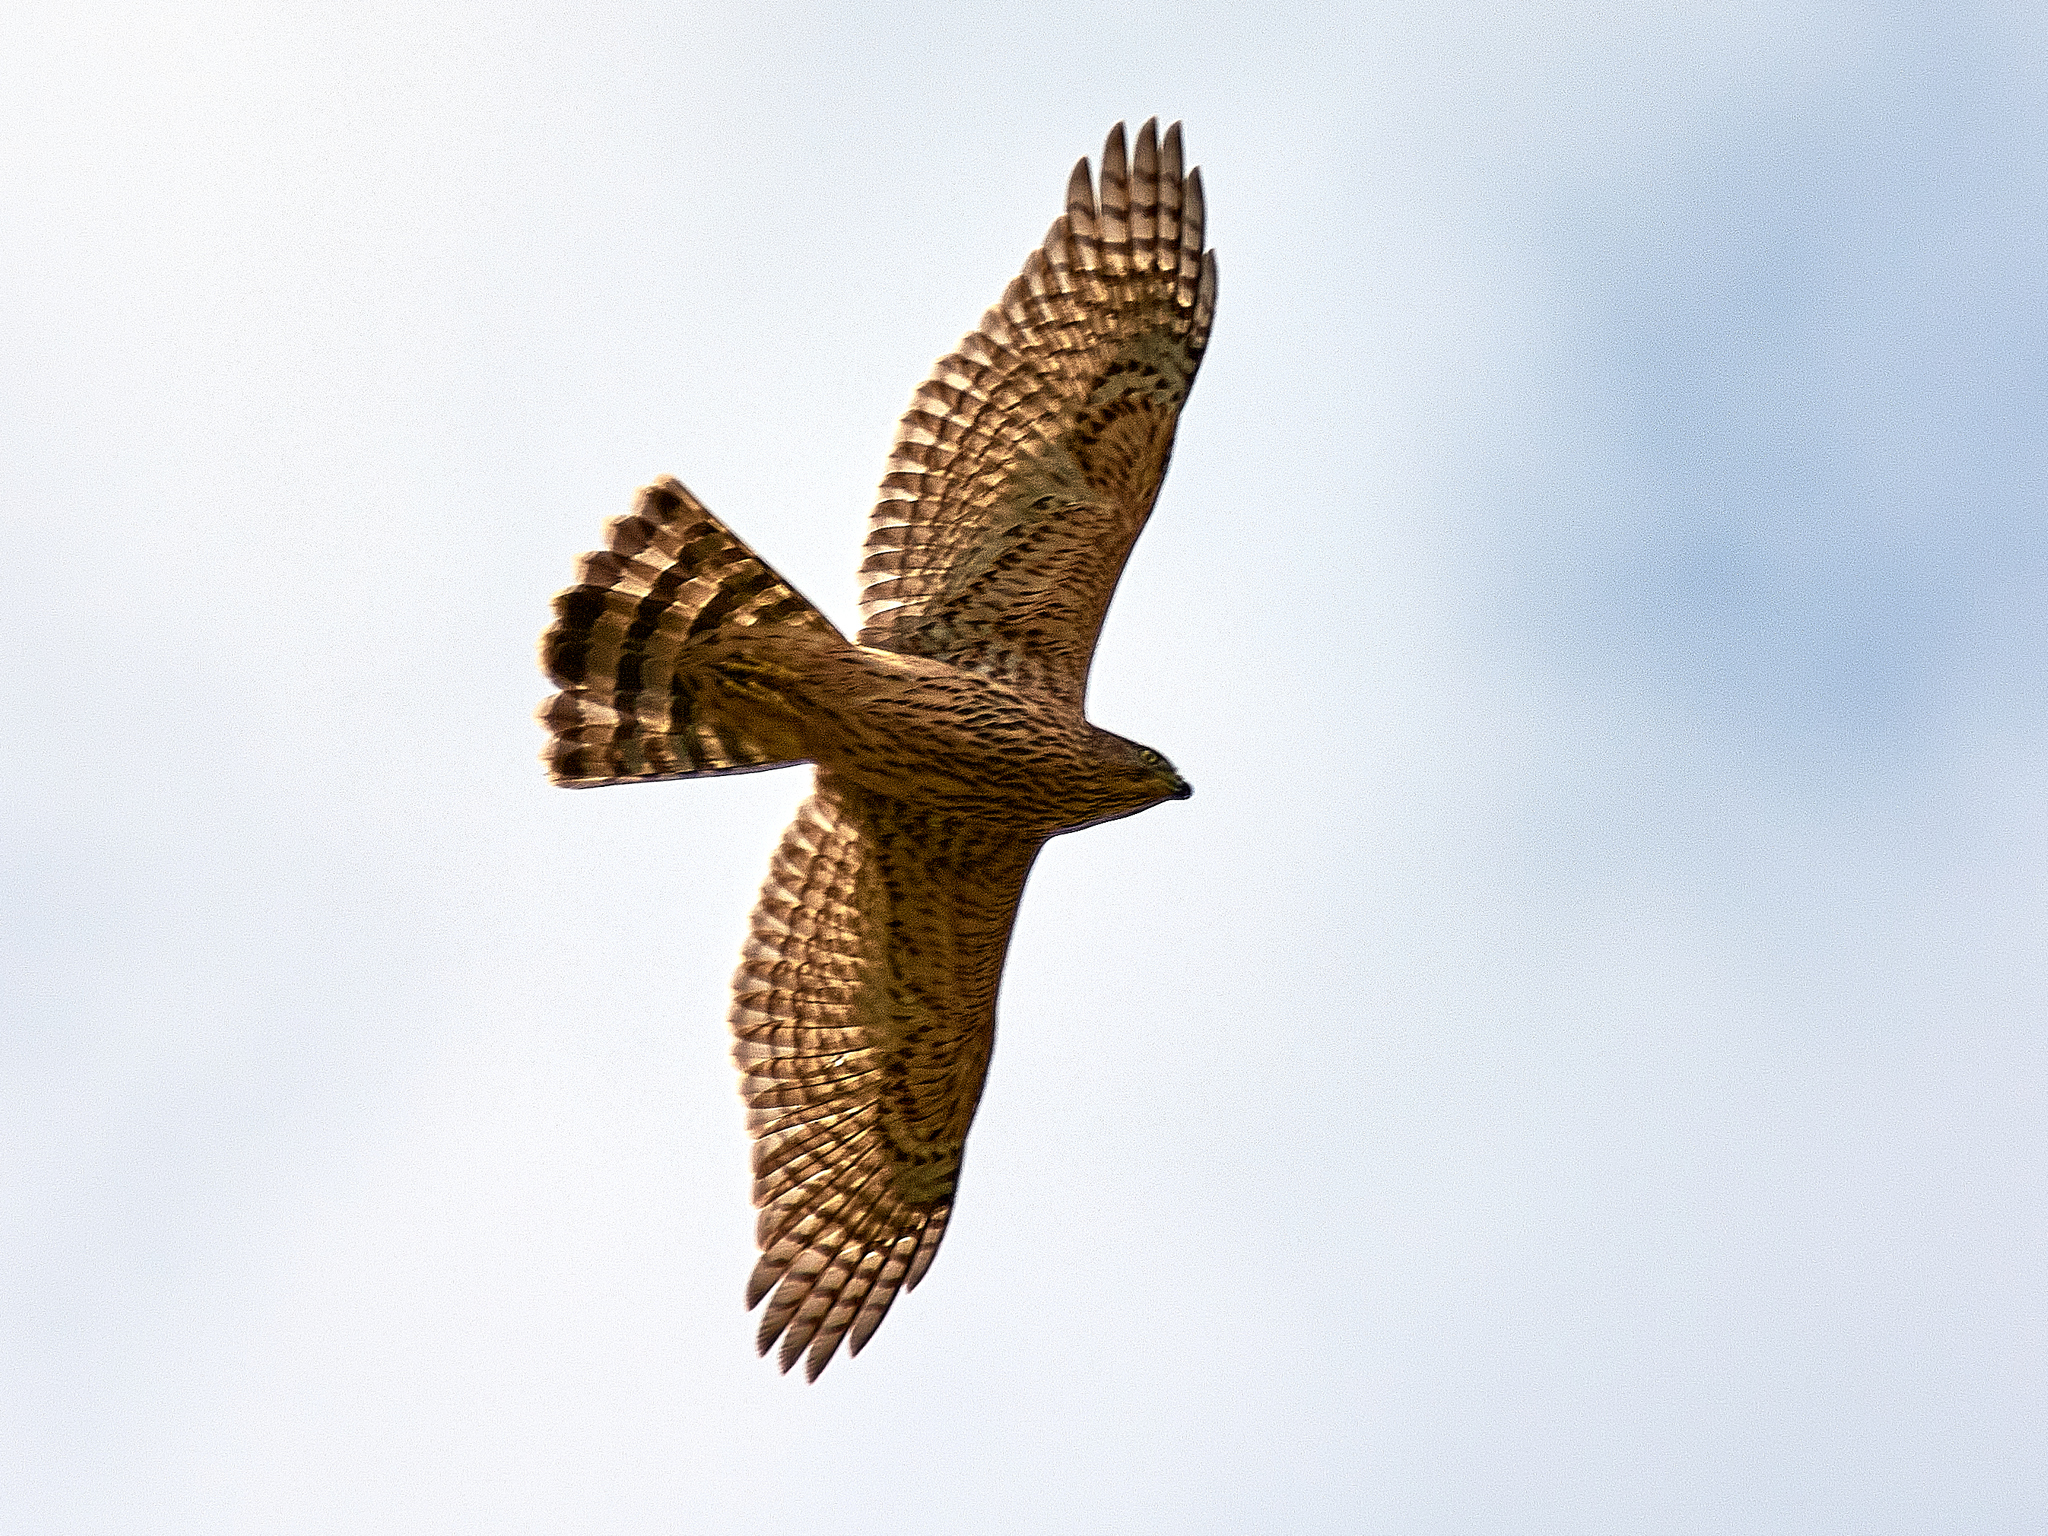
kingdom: Animalia
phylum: Chordata
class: Aves
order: Accipitriformes
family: Accipitridae
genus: Accipiter
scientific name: Accipiter gentilis
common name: Northern goshawk
